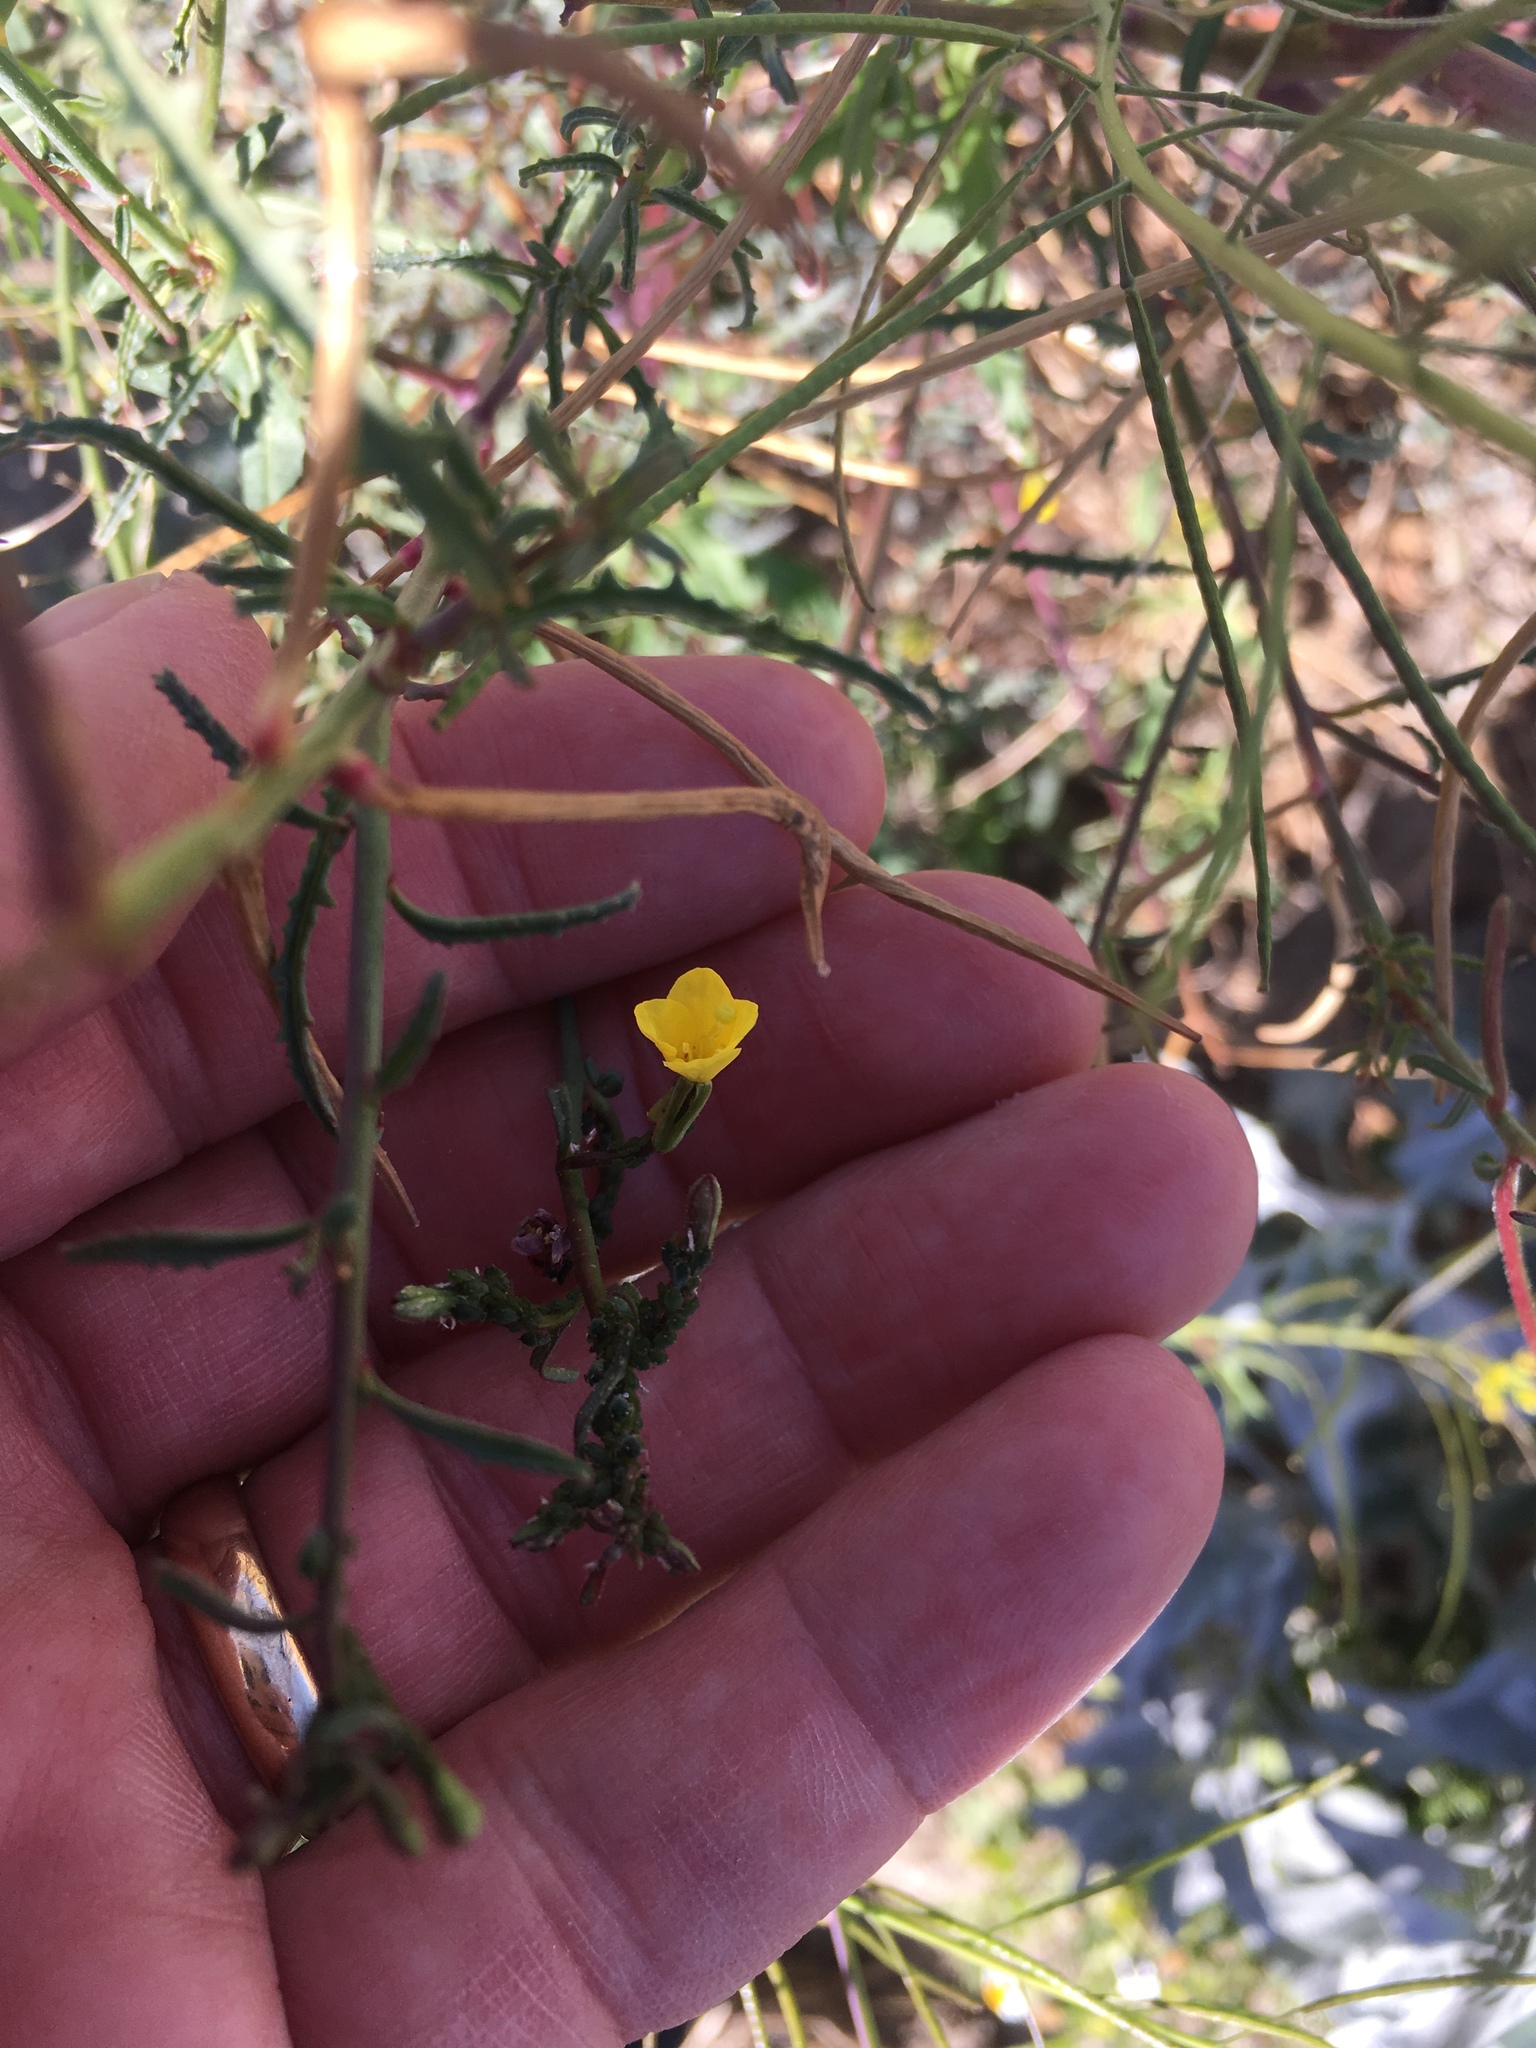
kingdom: Plantae
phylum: Tracheophyta
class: Magnoliopsida
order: Myrtales
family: Onagraceae
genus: Eulobus
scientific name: Eulobus californicus
